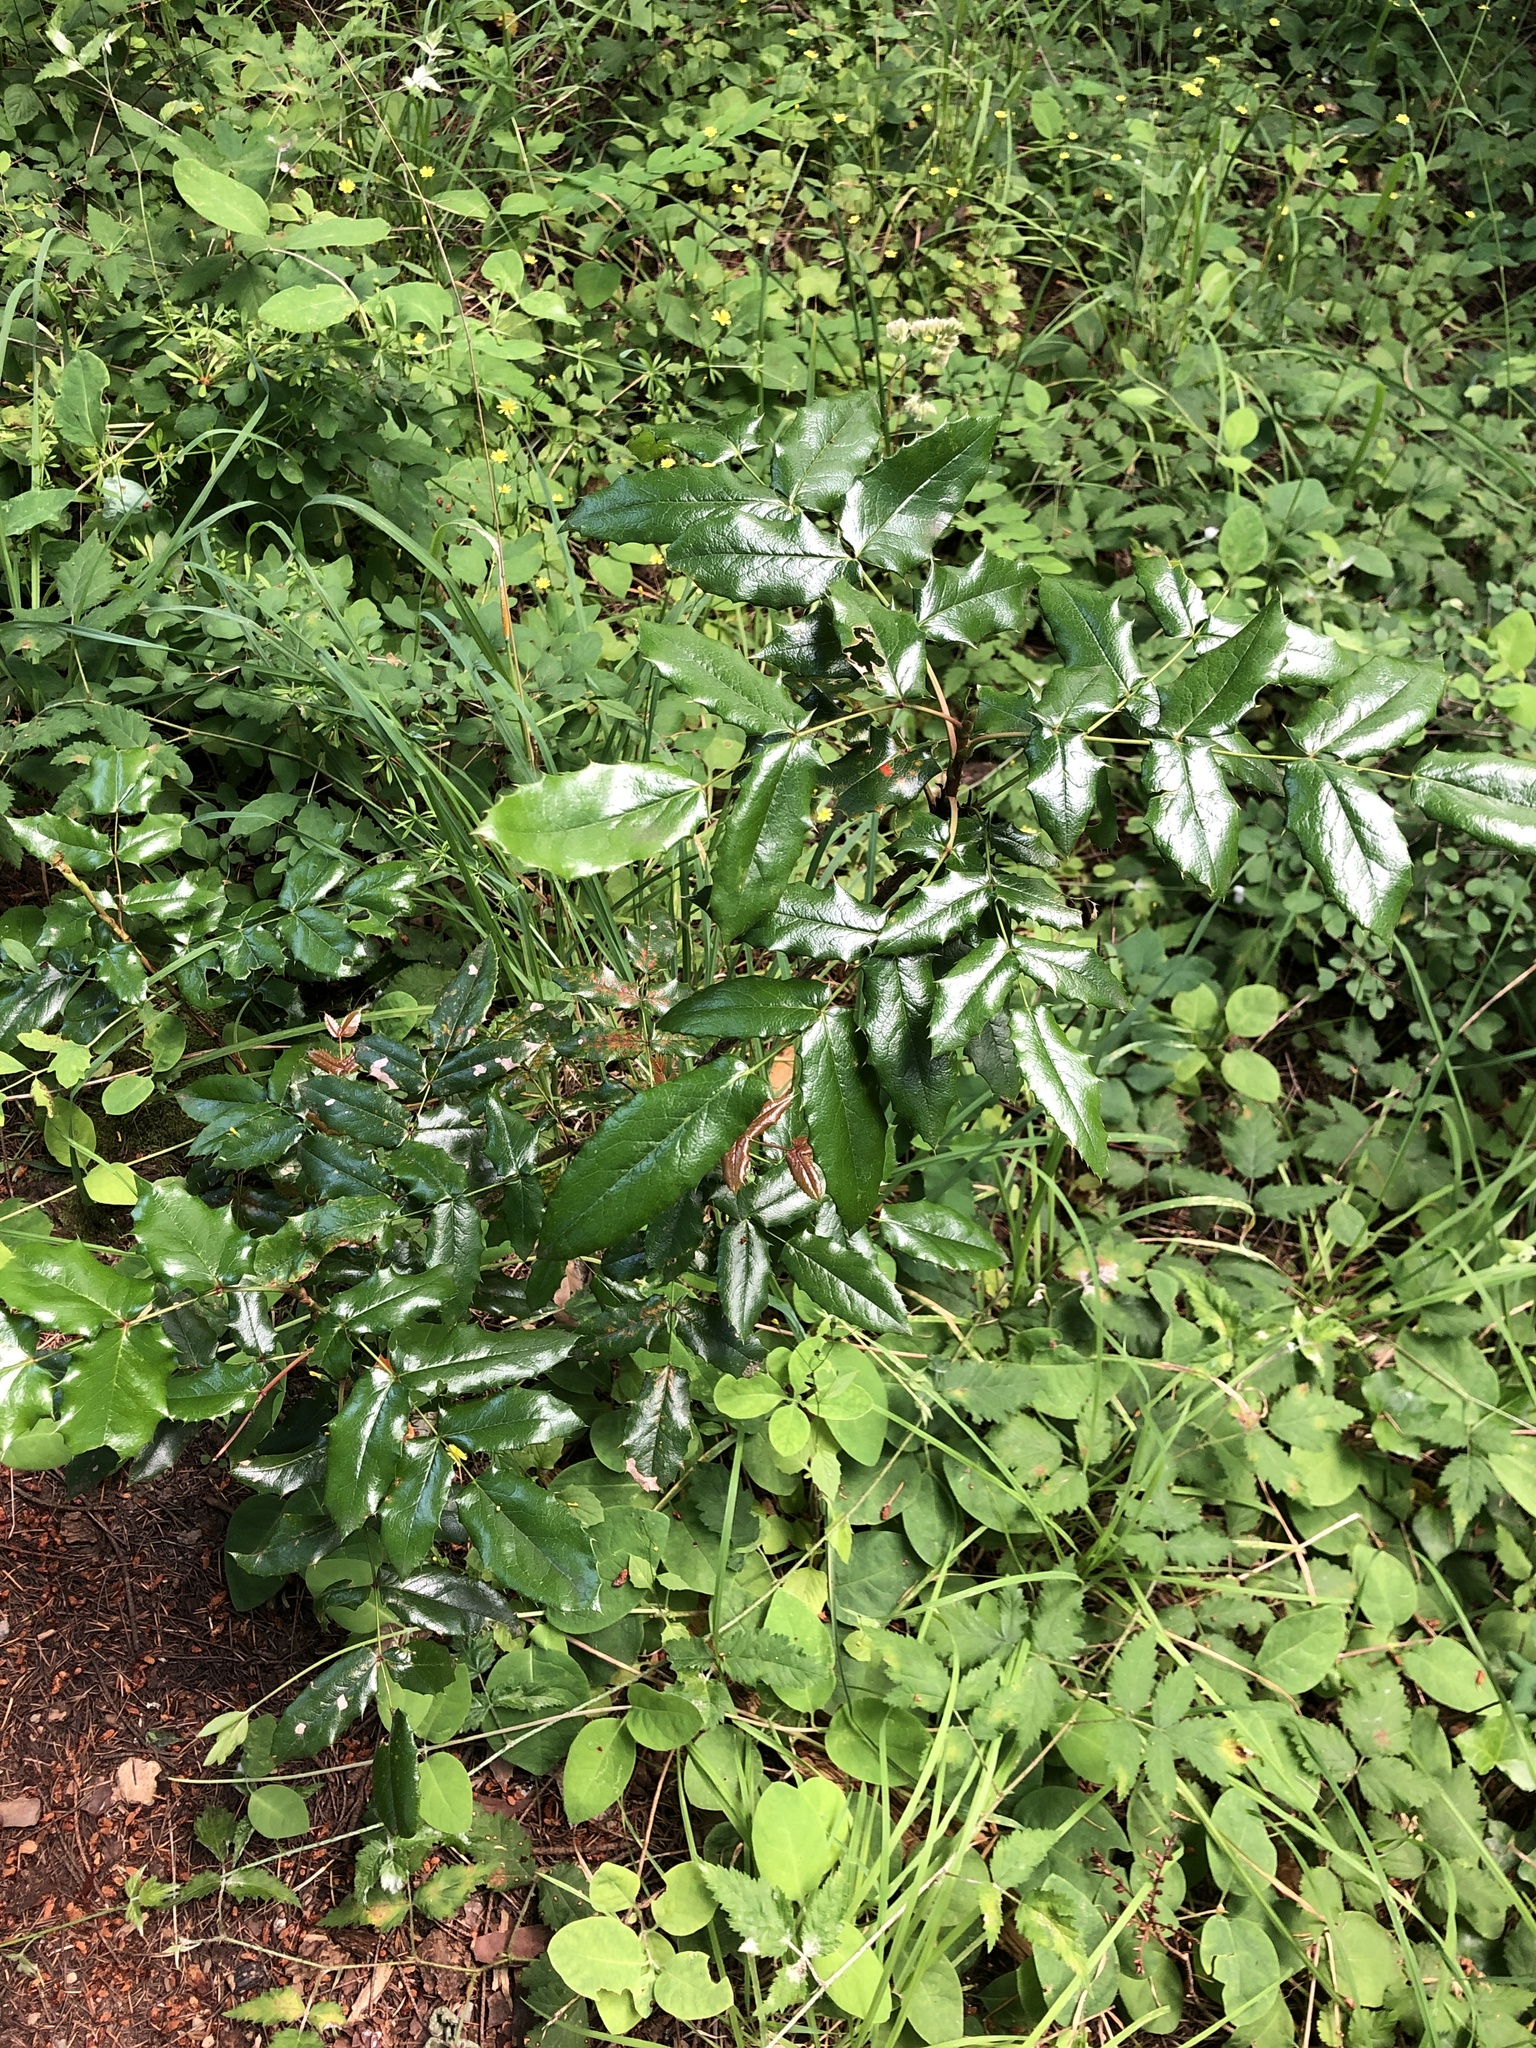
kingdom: Plantae
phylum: Tracheophyta
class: Magnoliopsida
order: Ranunculales
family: Berberidaceae
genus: Mahonia
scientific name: Mahonia aquifolium
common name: Oregon-grape
